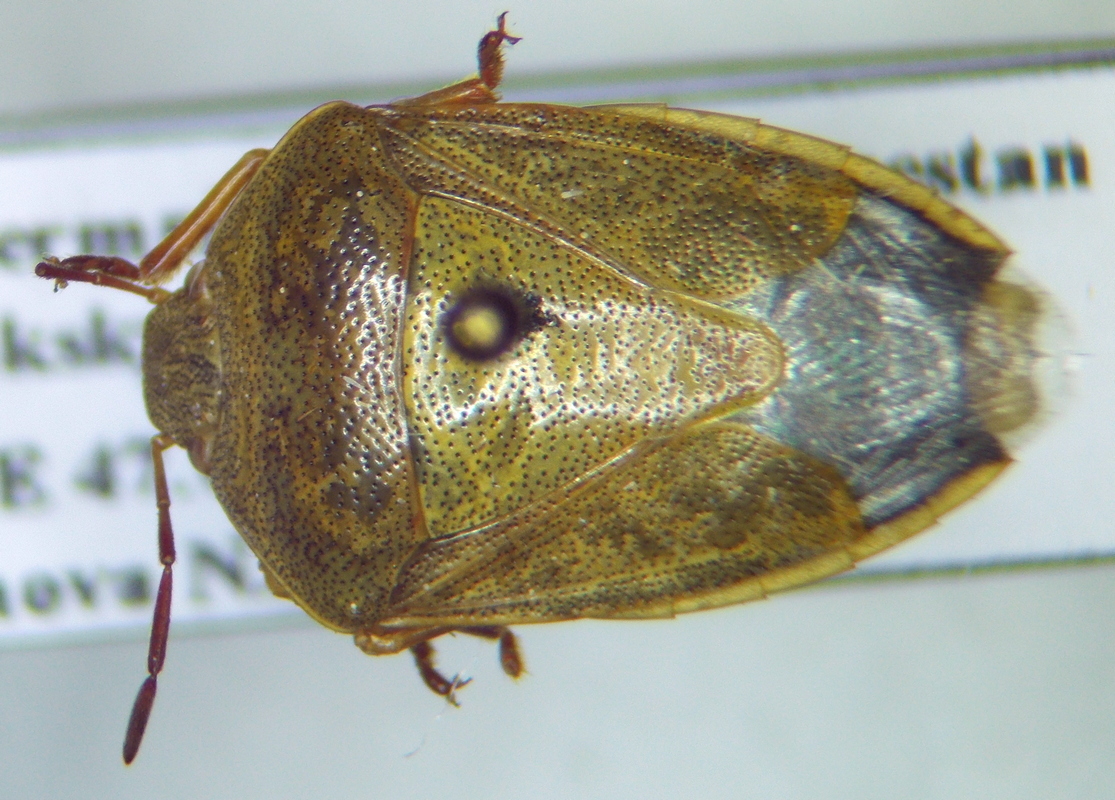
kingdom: Animalia
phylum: Arthropoda
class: Insecta
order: Hemiptera
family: Pentatomidae
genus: Piezodorus
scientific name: Piezodorus lituratus
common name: Stink bug
